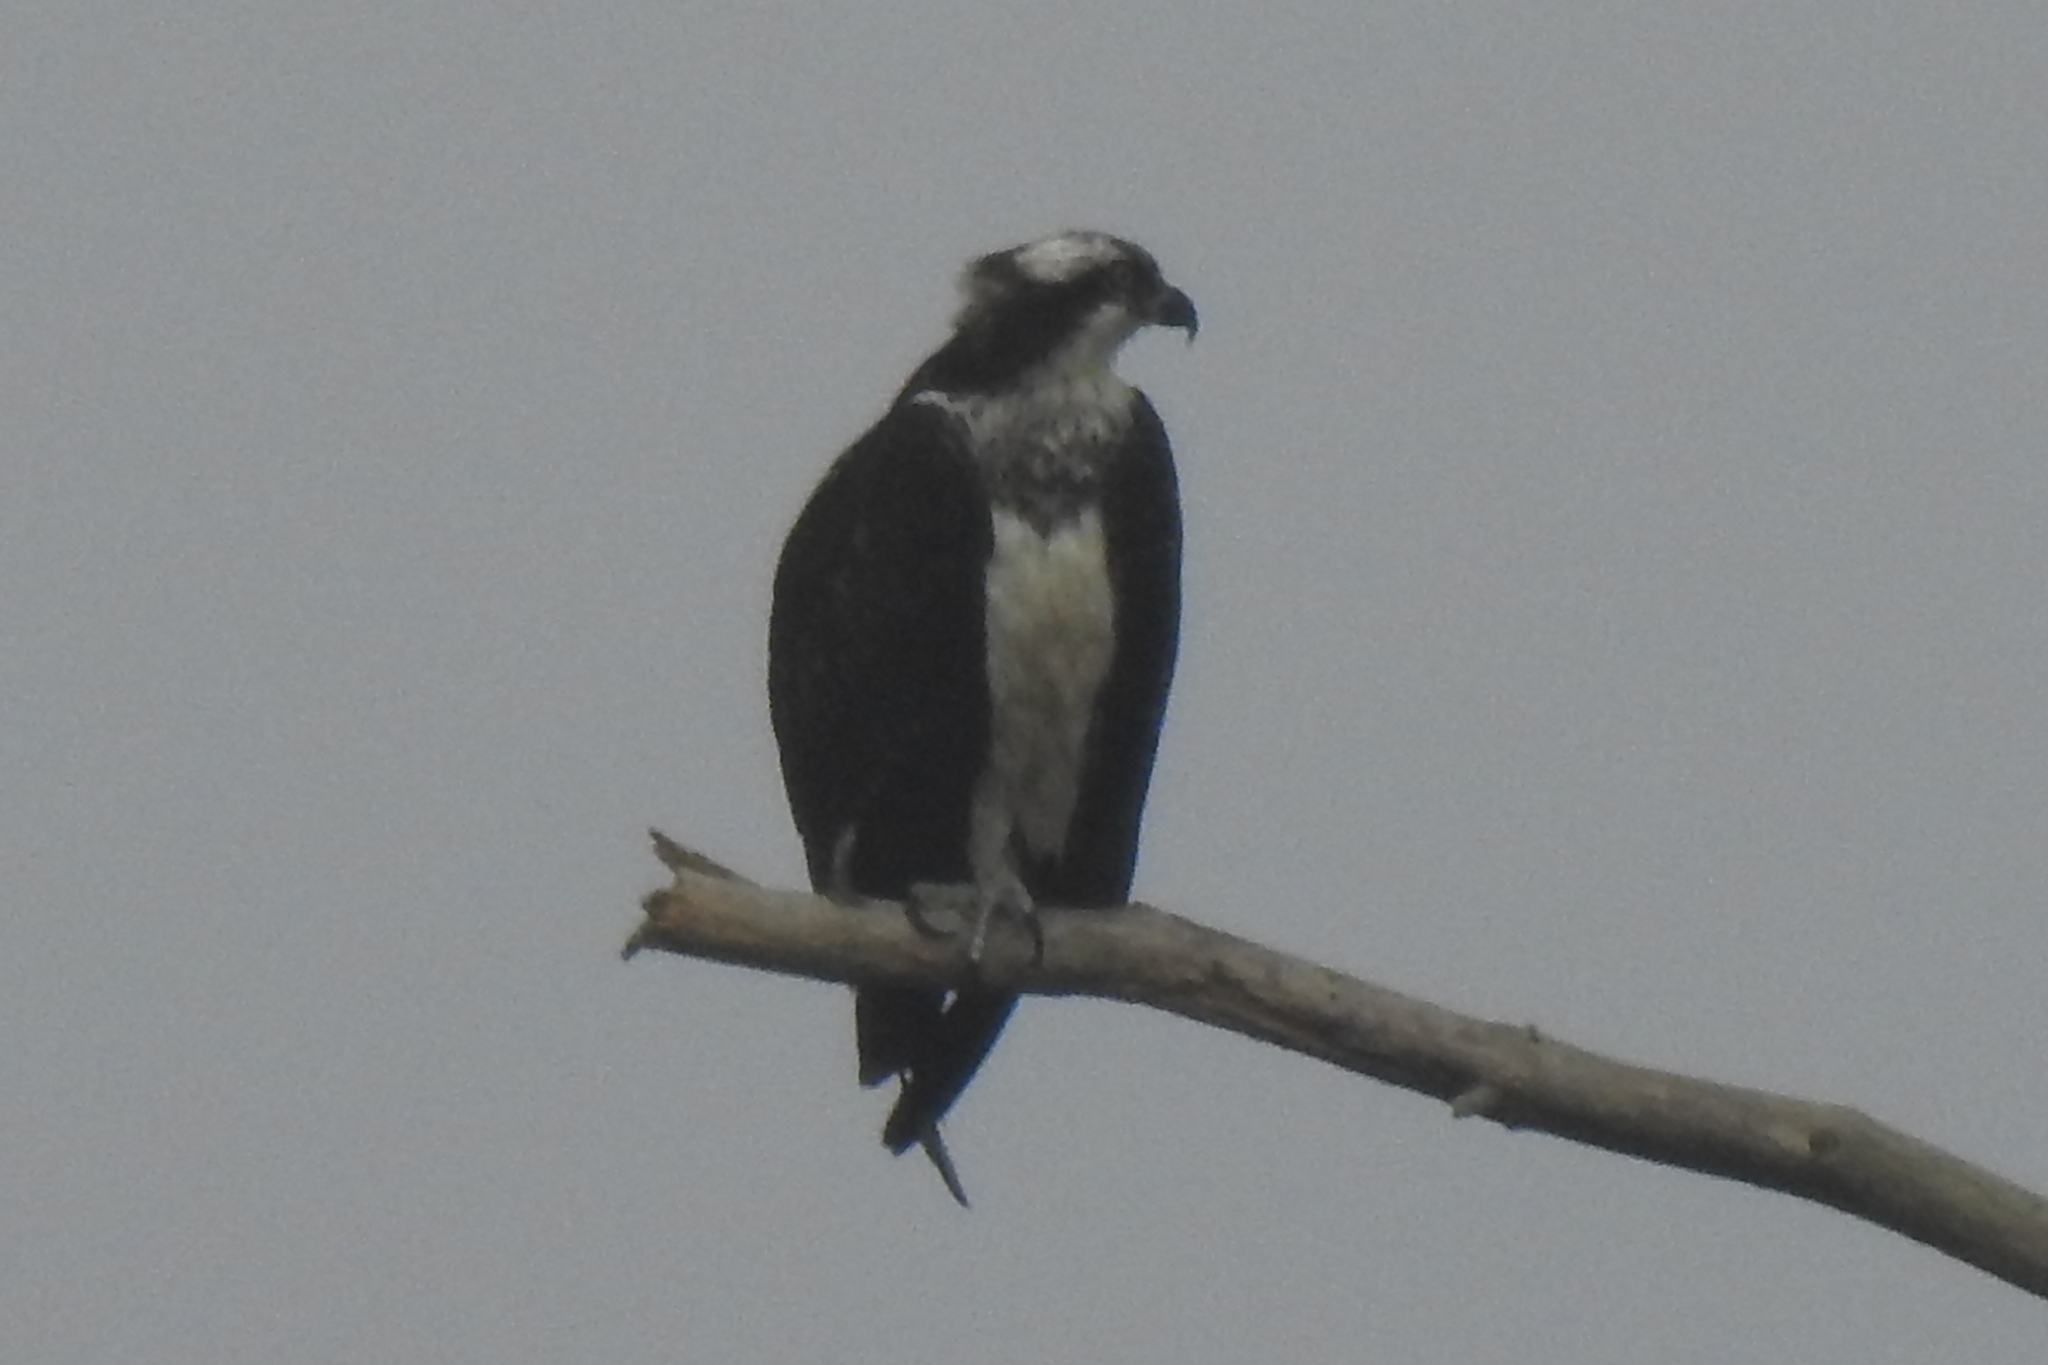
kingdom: Animalia
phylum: Chordata
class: Aves
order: Accipitriformes
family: Pandionidae
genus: Pandion
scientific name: Pandion haliaetus
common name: Osprey
